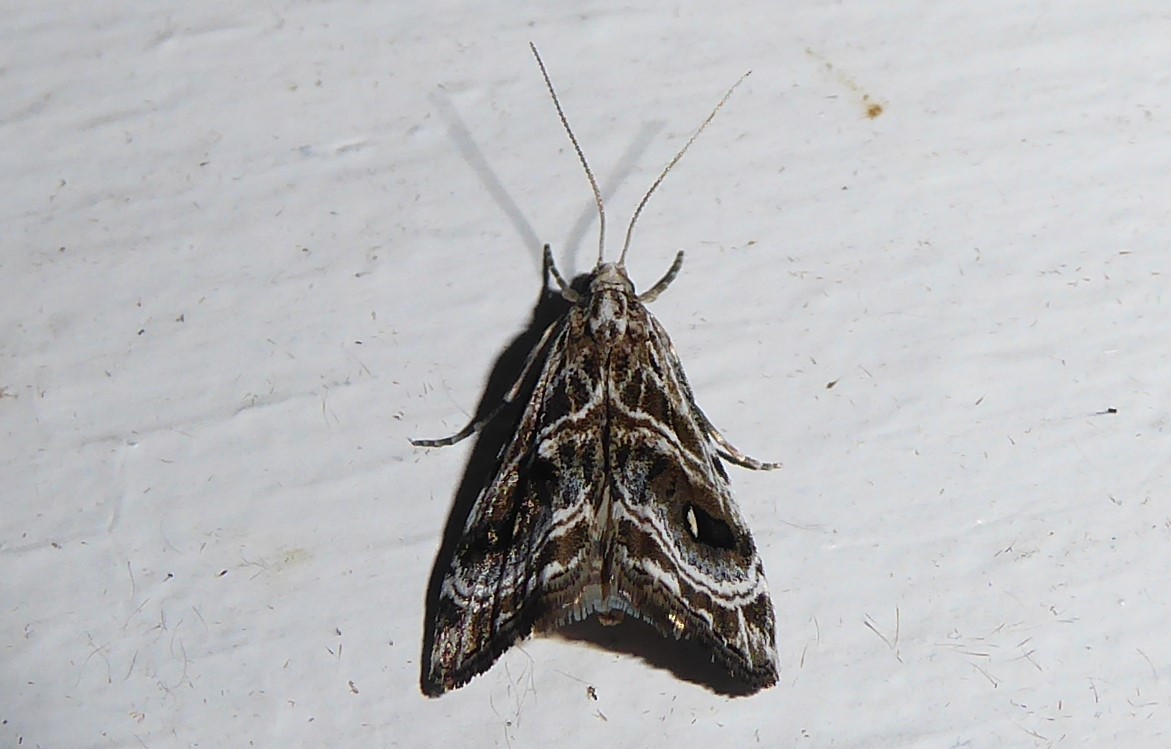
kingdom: Animalia
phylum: Arthropoda
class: Insecta
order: Lepidoptera
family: Crambidae
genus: Gadira
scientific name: Gadira acerella
